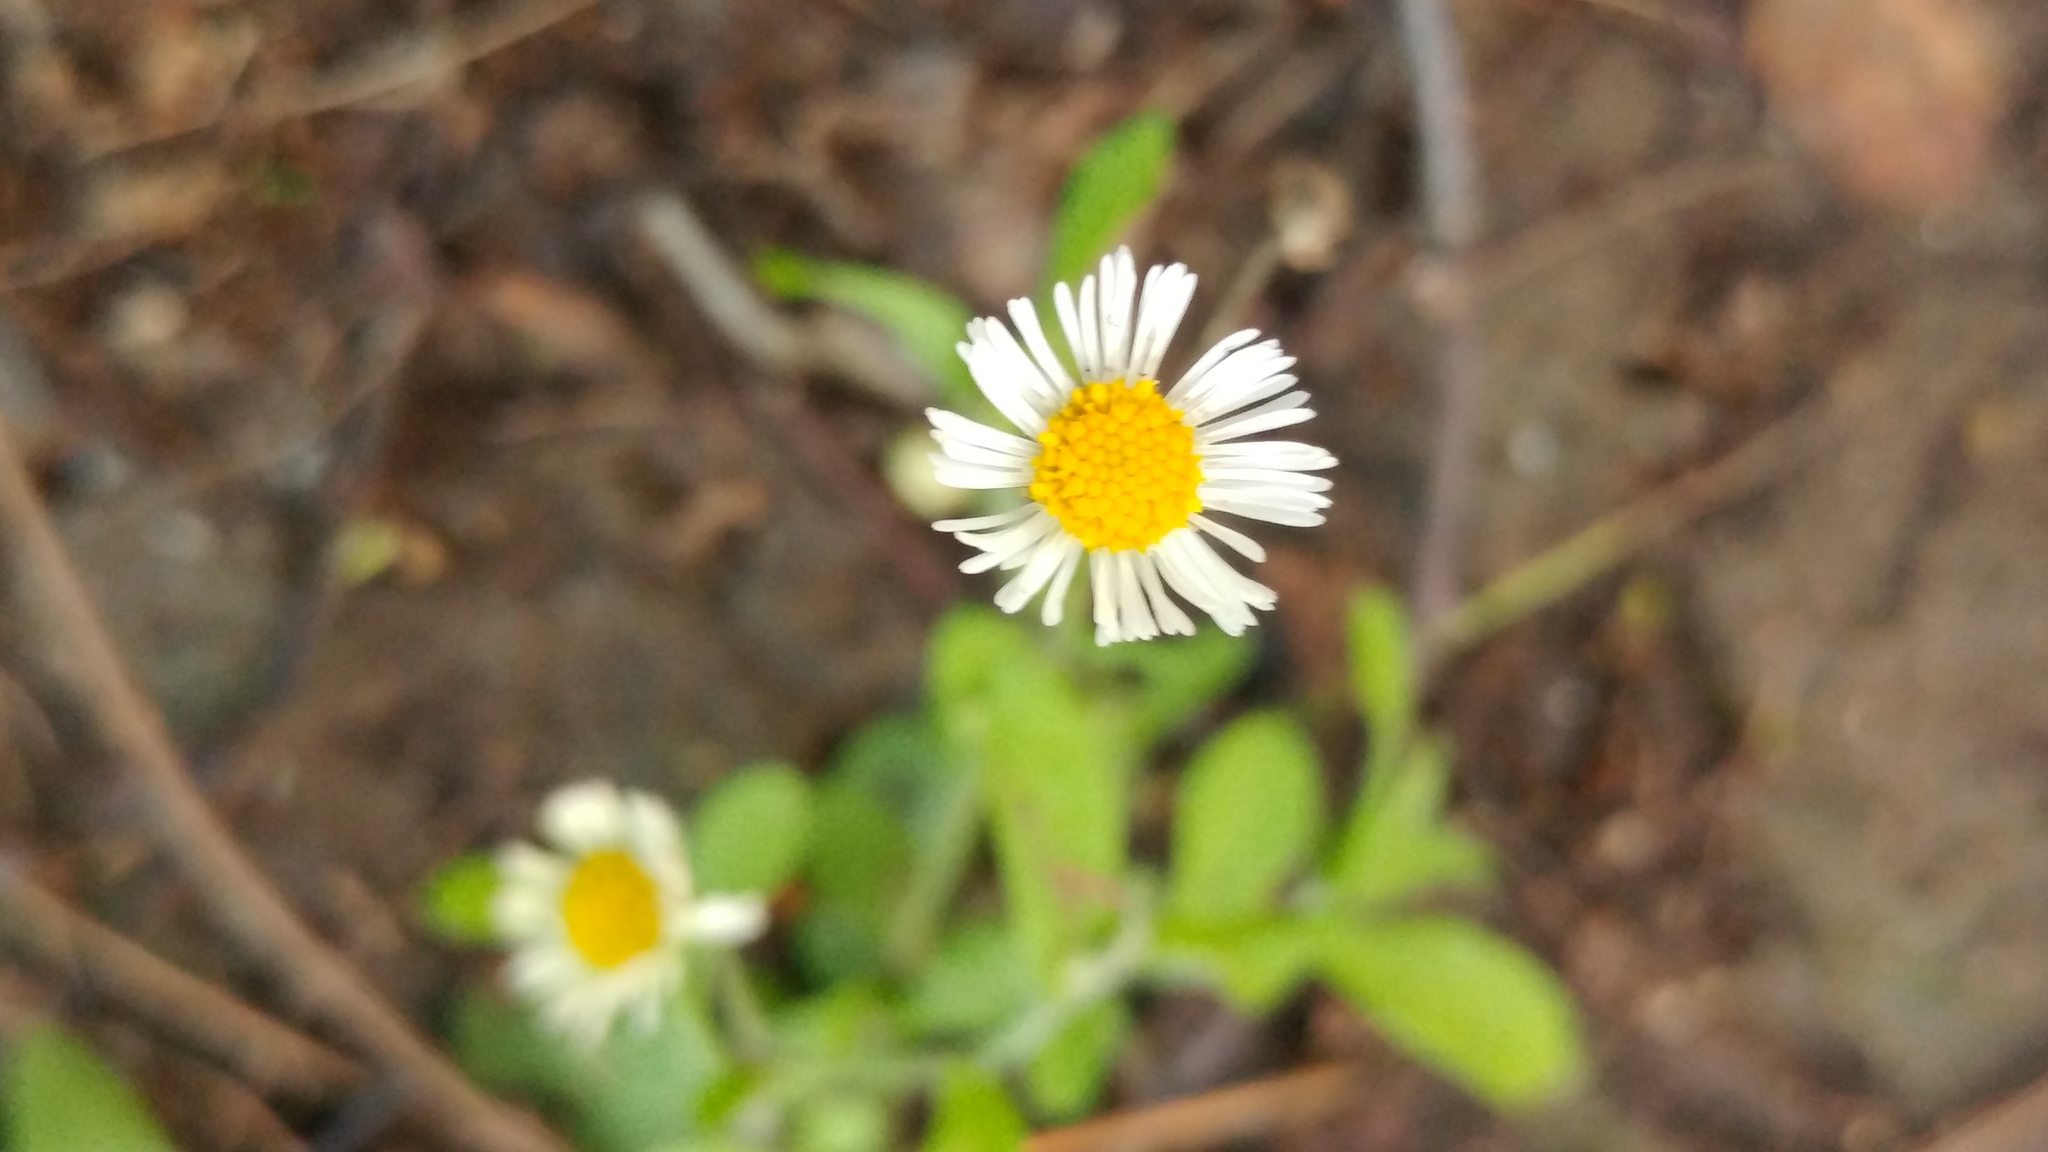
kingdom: Plantae
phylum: Tracheophyta
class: Magnoliopsida
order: Asterales
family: Asteraceae
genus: Erigeron
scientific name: Erigeron basilobatus
